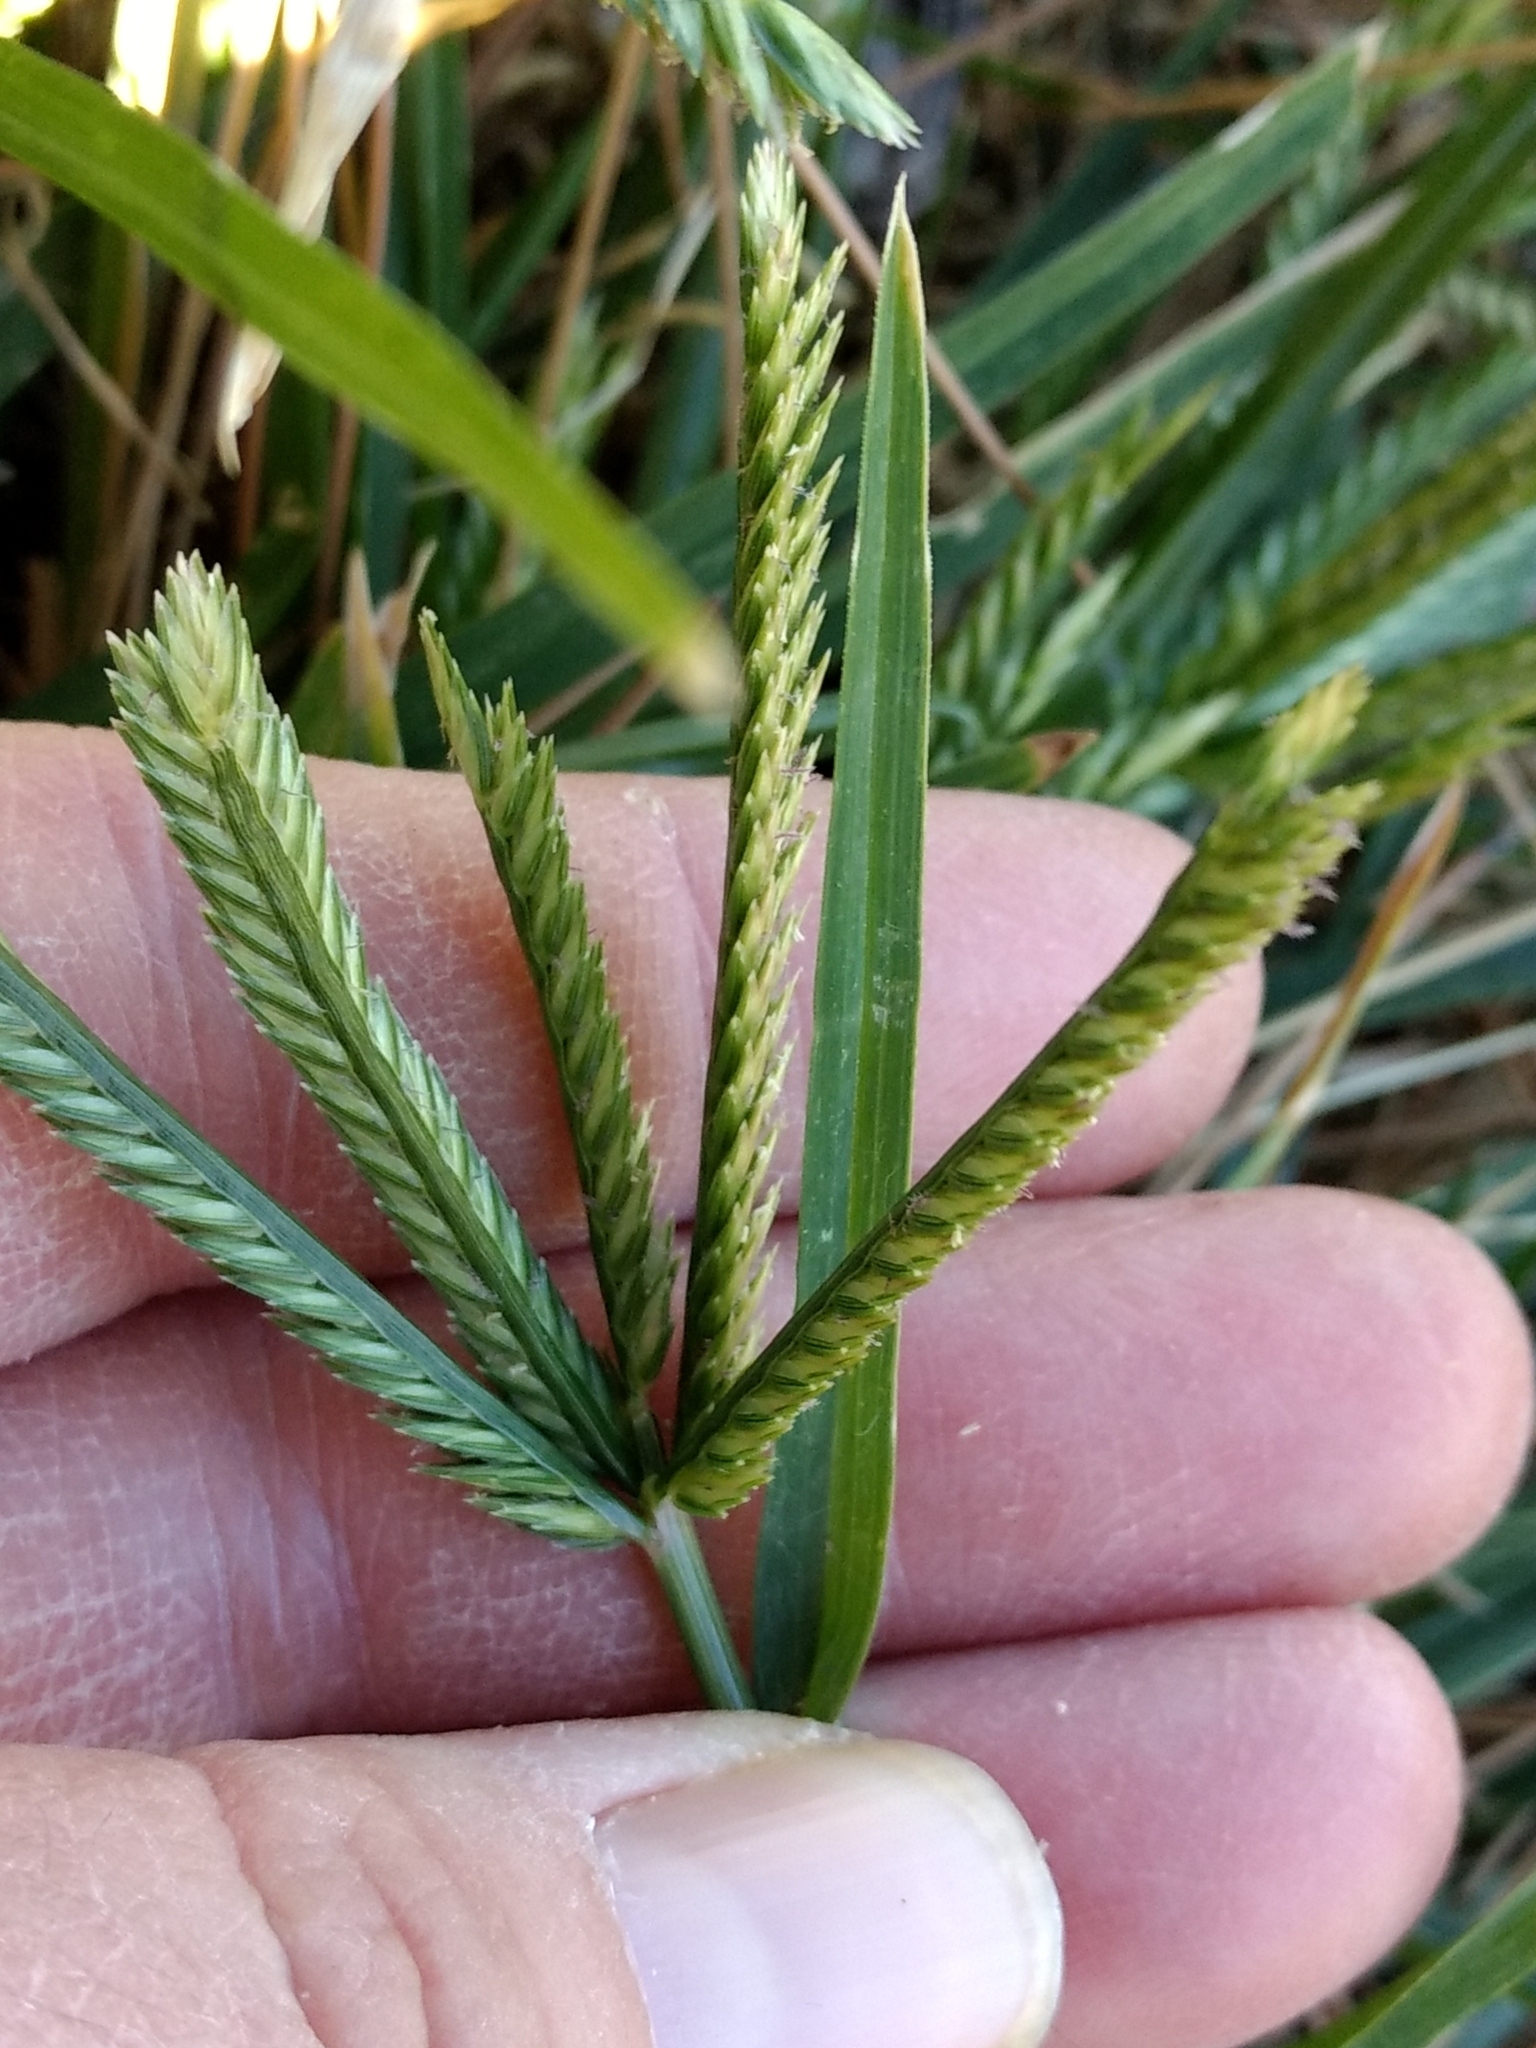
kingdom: Plantae
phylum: Tracheophyta
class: Liliopsida
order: Poales
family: Poaceae
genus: Eleusine
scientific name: Eleusine indica
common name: Yard-grass
